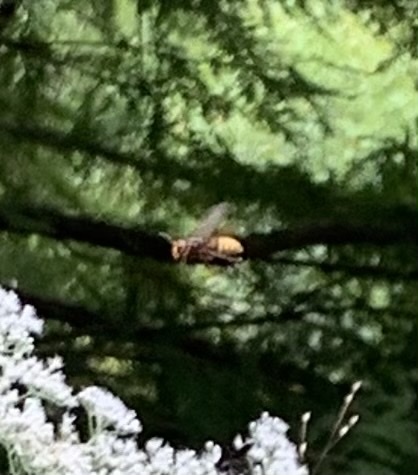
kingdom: Animalia
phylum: Arthropoda
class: Insecta
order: Hymenoptera
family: Vespidae
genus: Vespa
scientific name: Vespa crabro
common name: Hornet
